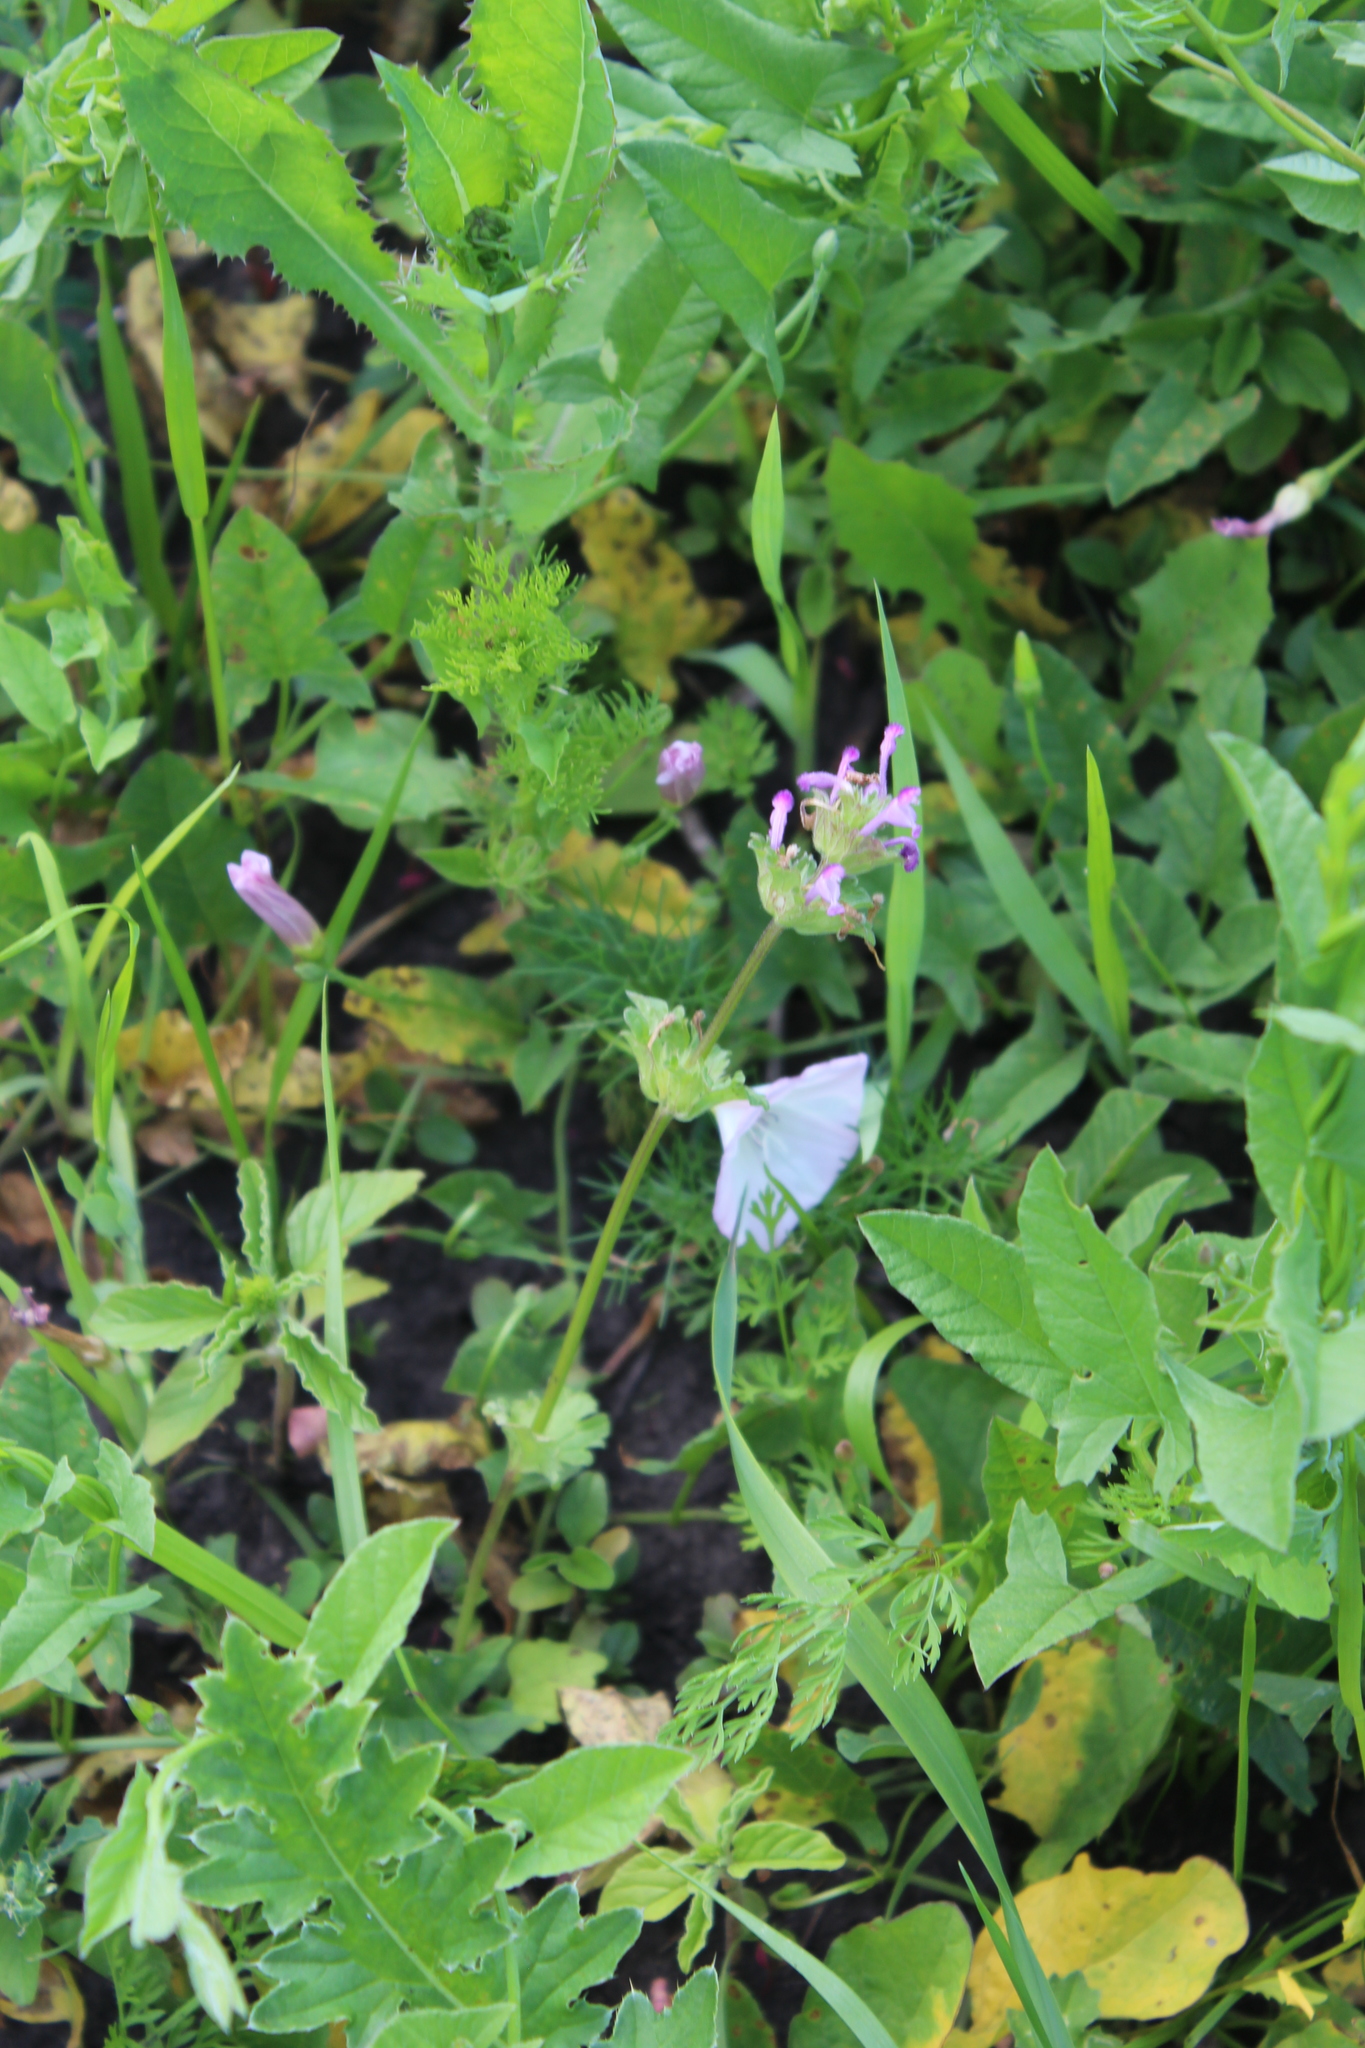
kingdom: Plantae
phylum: Tracheophyta
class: Magnoliopsida
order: Lamiales
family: Lamiaceae
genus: Lamium
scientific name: Lamium amplexicaule
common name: Henbit dead-nettle
